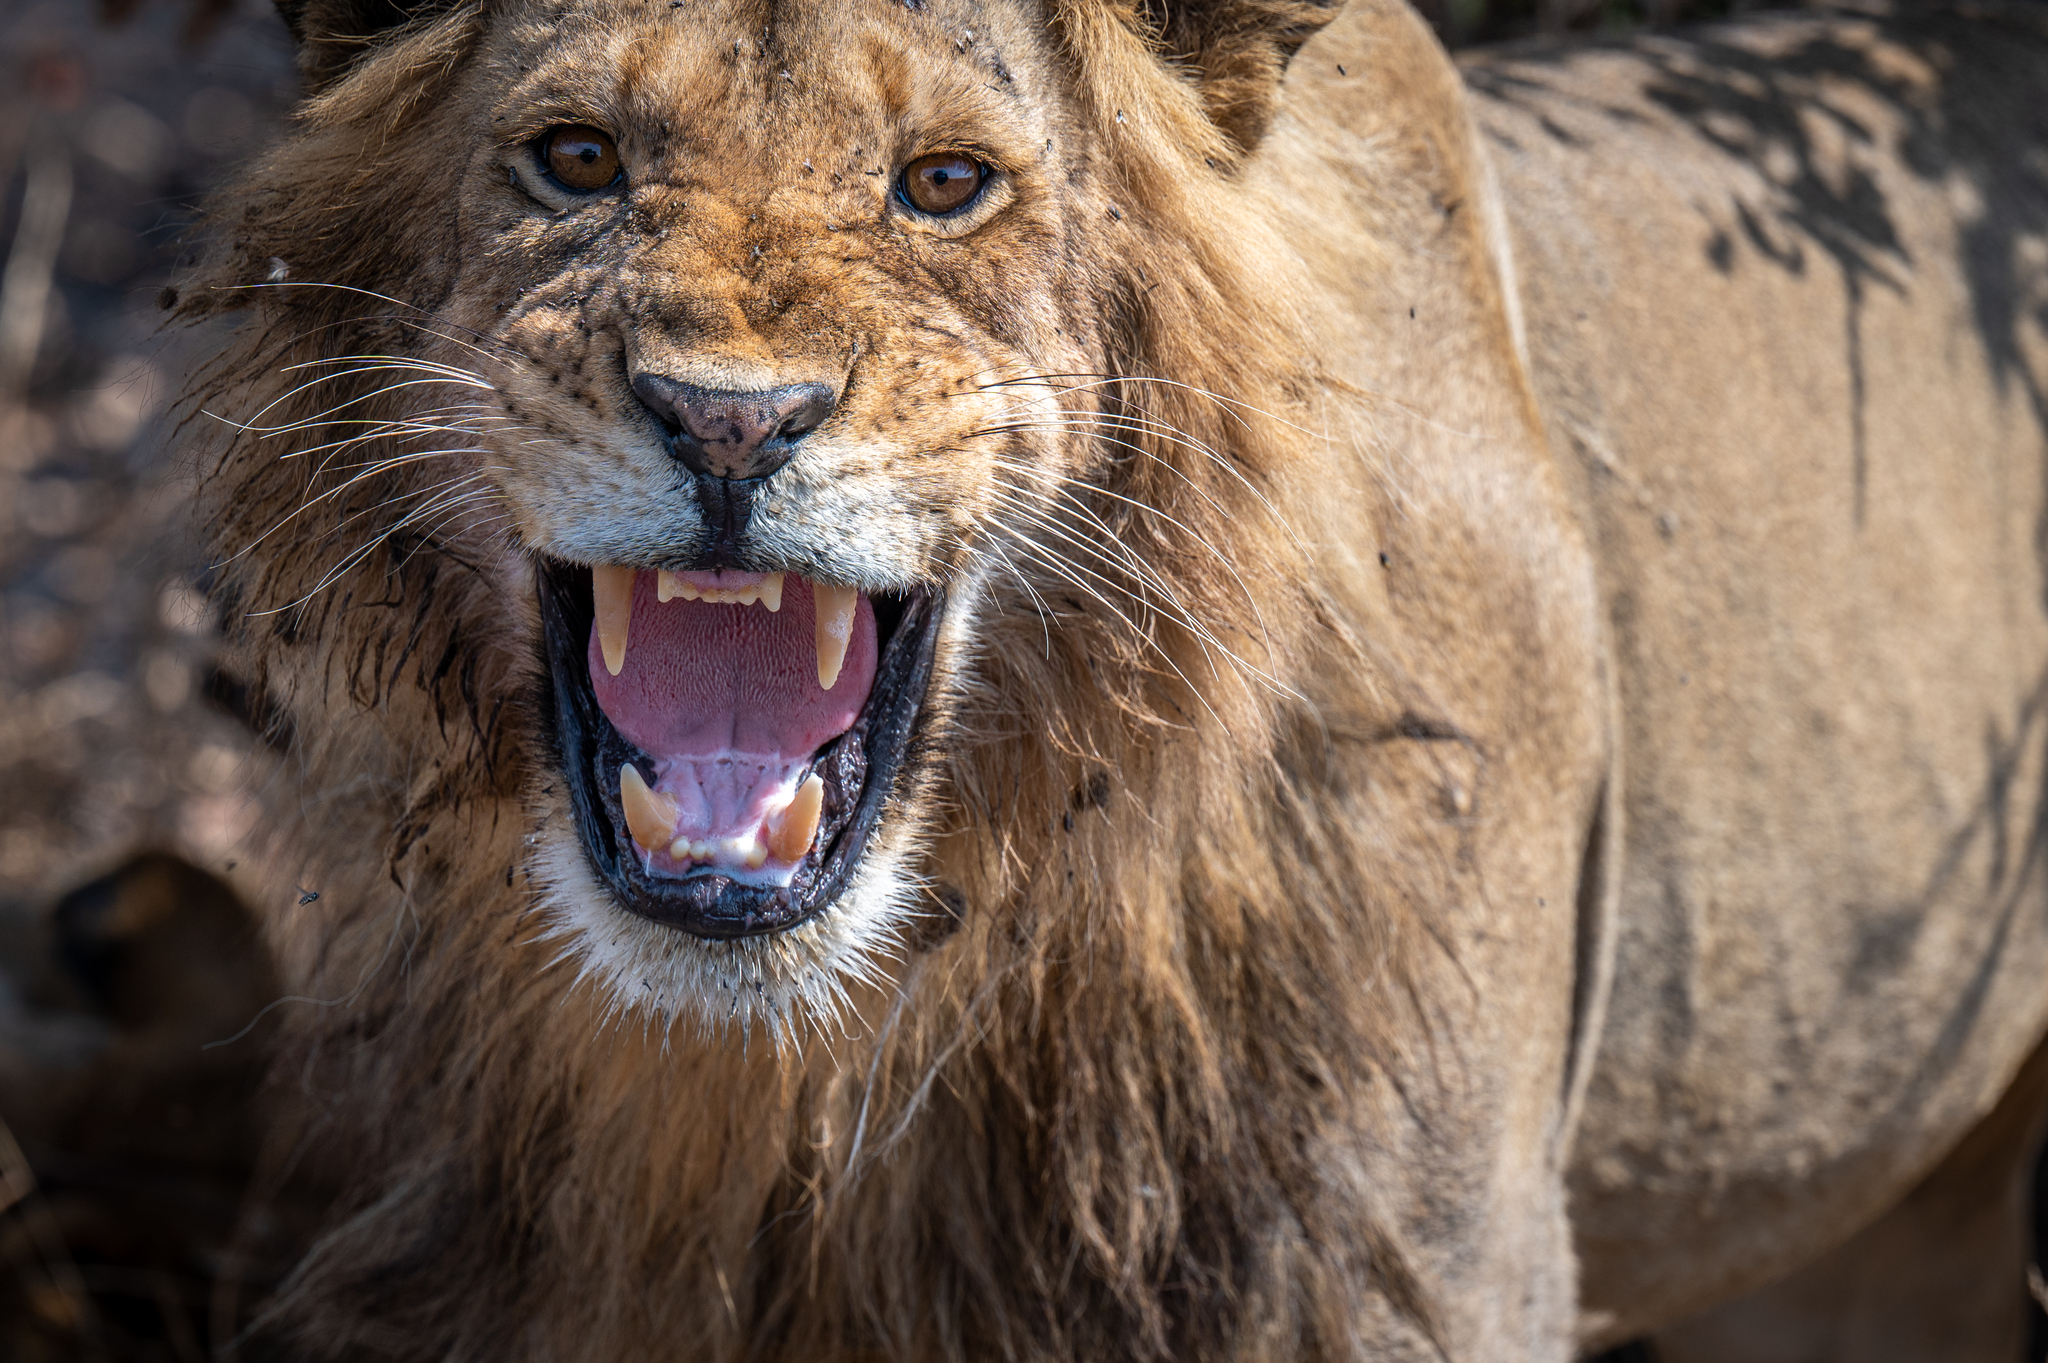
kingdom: Animalia
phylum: Chordata
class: Mammalia
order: Carnivora
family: Felidae
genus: Panthera
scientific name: Panthera leo
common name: Lion
